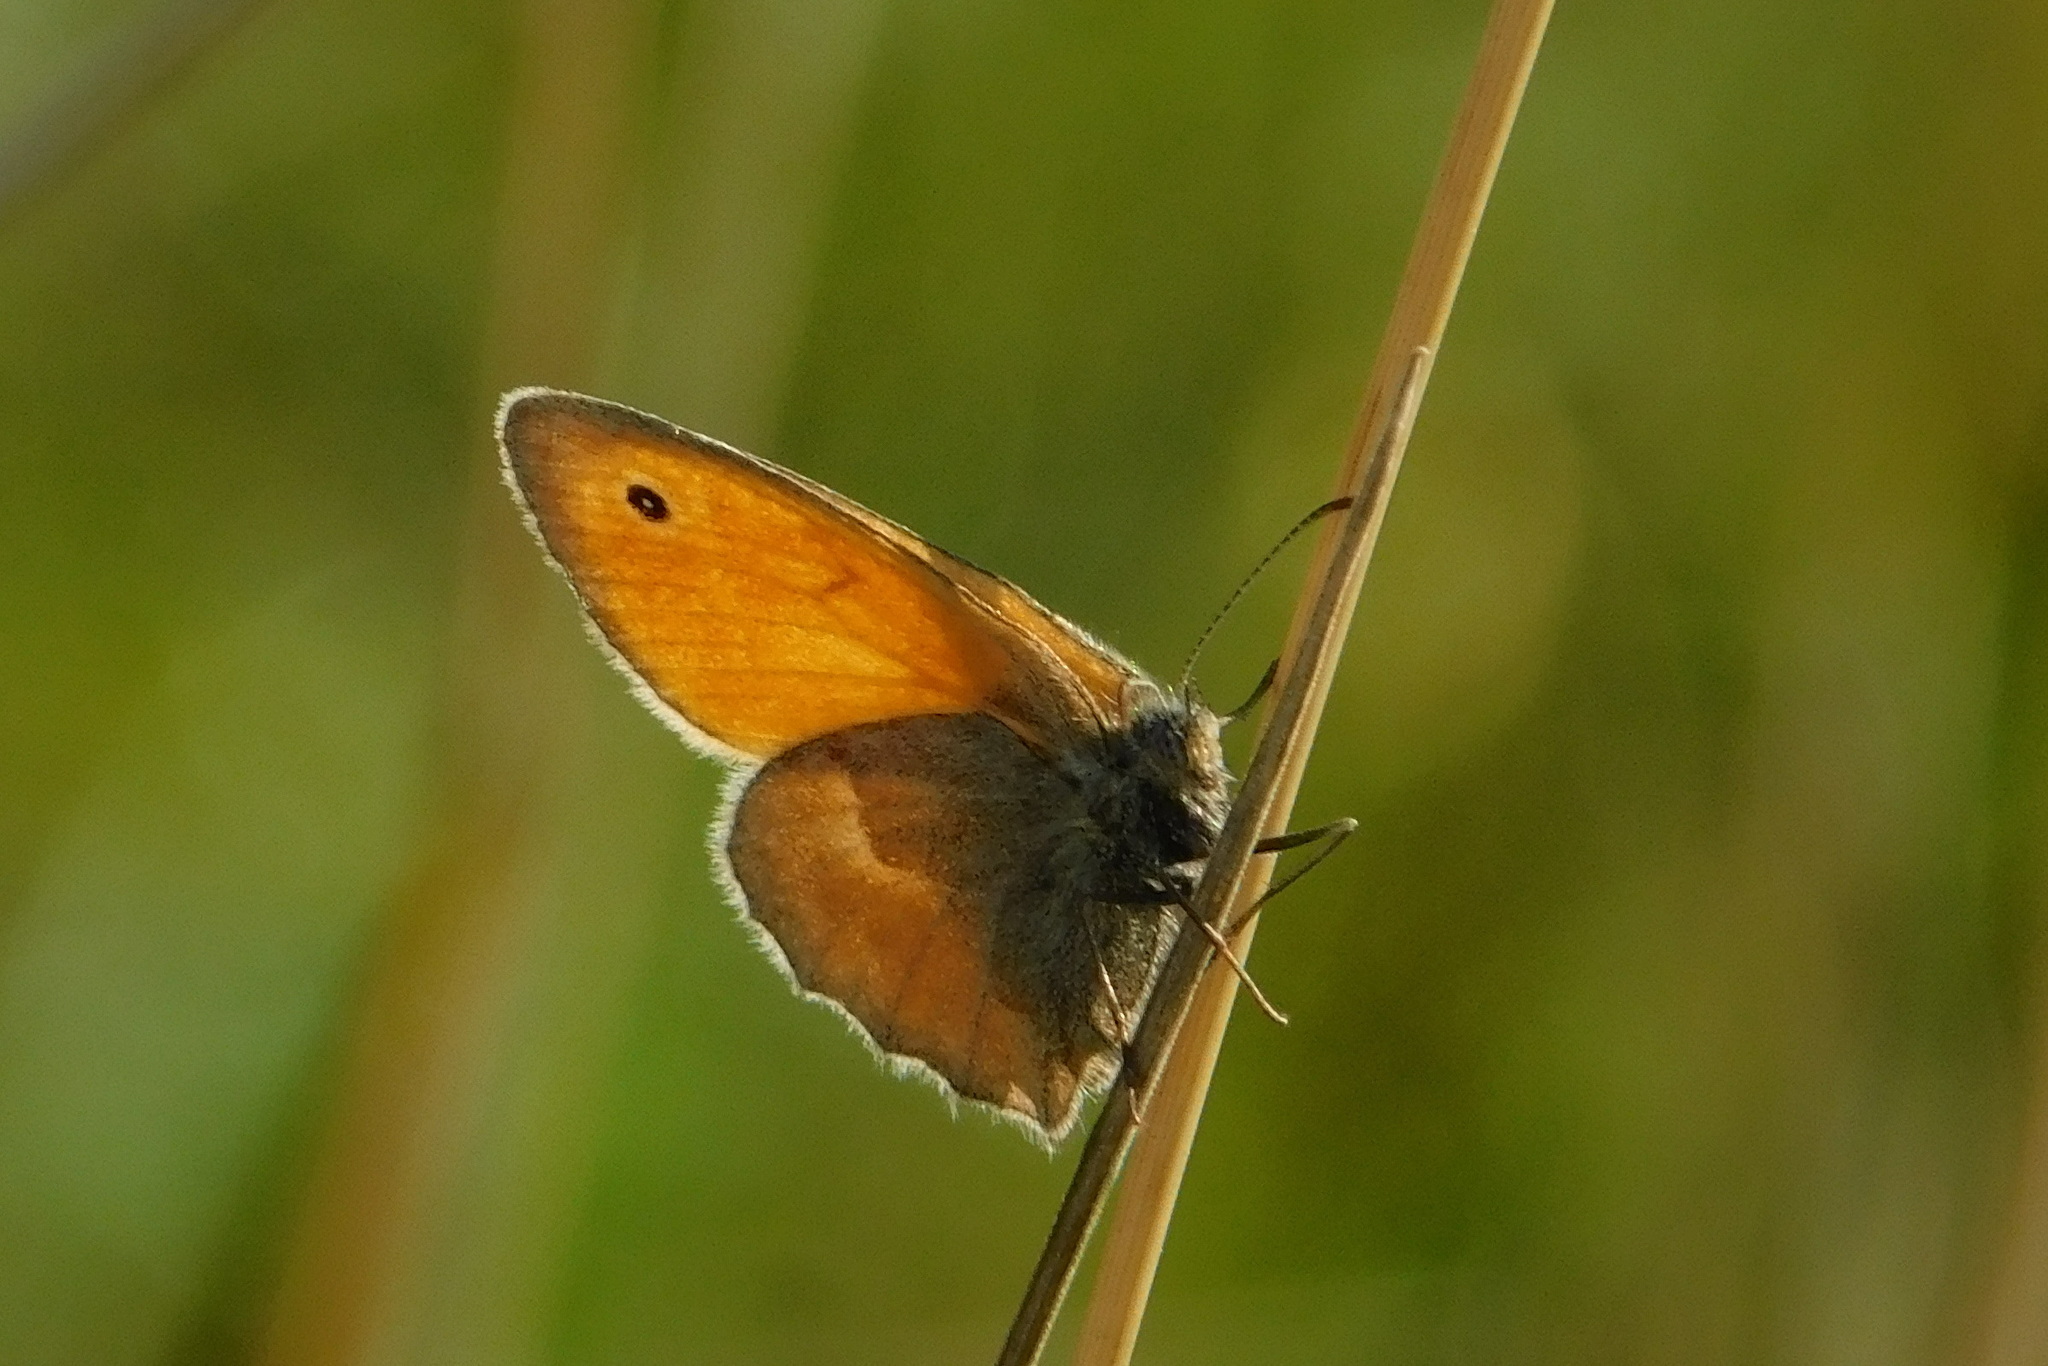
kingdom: Animalia
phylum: Arthropoda
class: Insecta
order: Lepidoptera
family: Nymphalidae
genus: Coenonympha
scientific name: Coenonympha pamphilus
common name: Small heath
